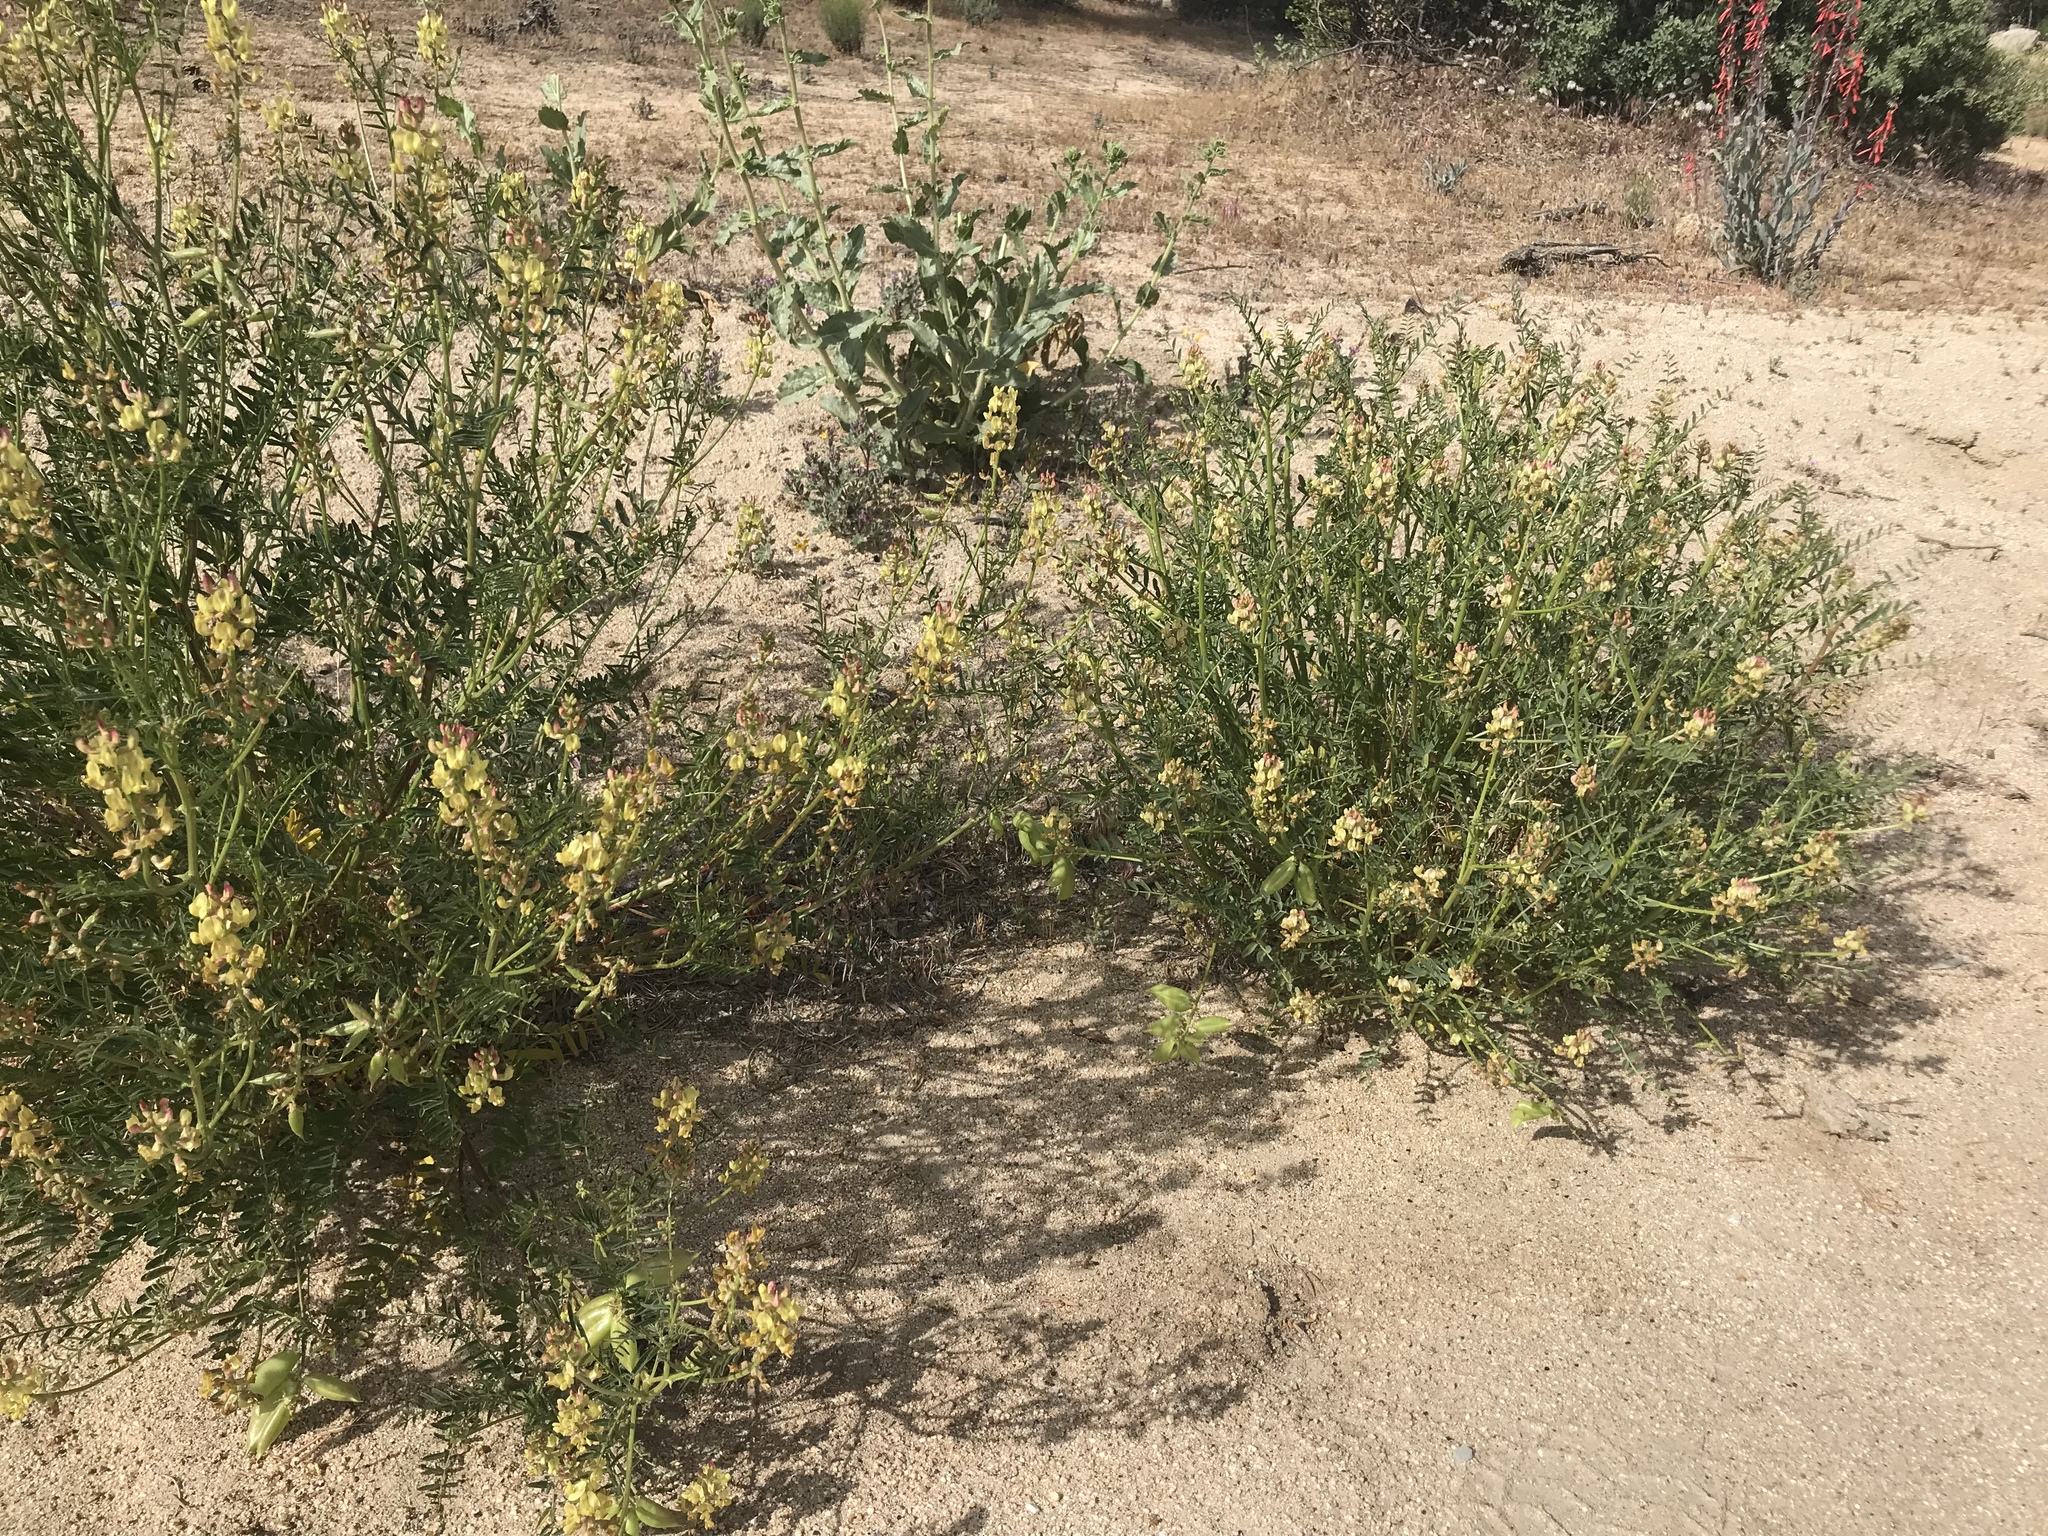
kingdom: Plantae
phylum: Tracheophyta
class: Magnoliopsida
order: Fabales
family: Fabaceae
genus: Astragalus
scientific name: Astragalus douglasii
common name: Jacumba milkvetch
